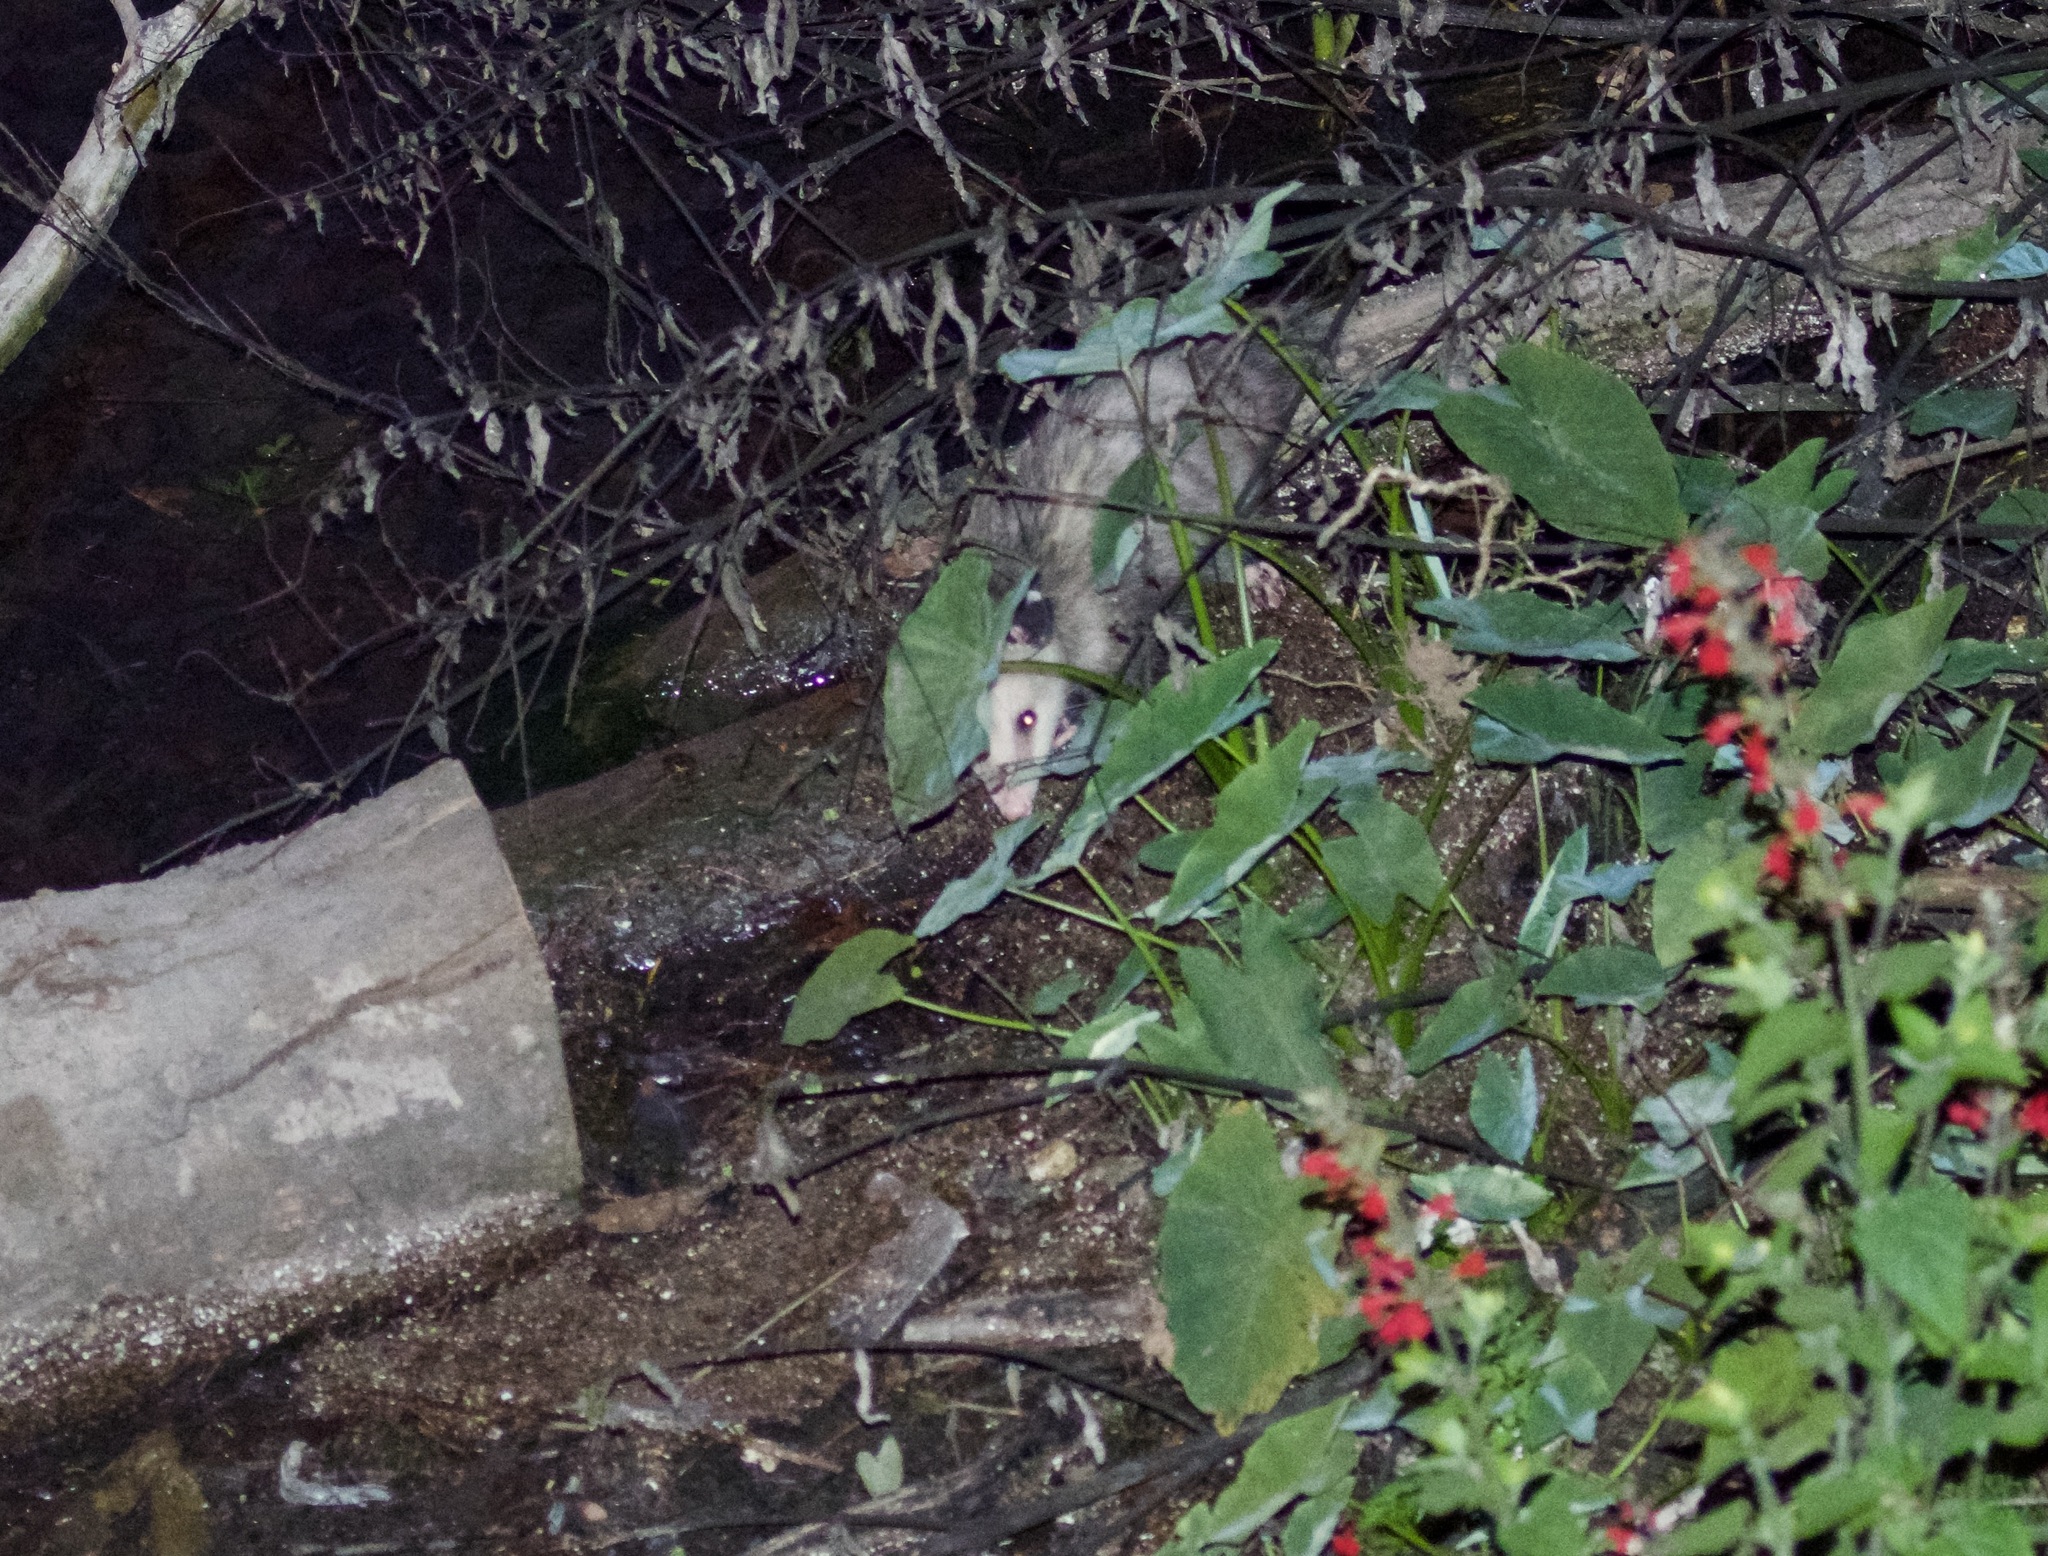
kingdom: Animalia
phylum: Chordata
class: Mammalia
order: Didelphimorphia
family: Didelphidae
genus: Didelphis
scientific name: Didelphis virginiana
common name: Virginia opossum
